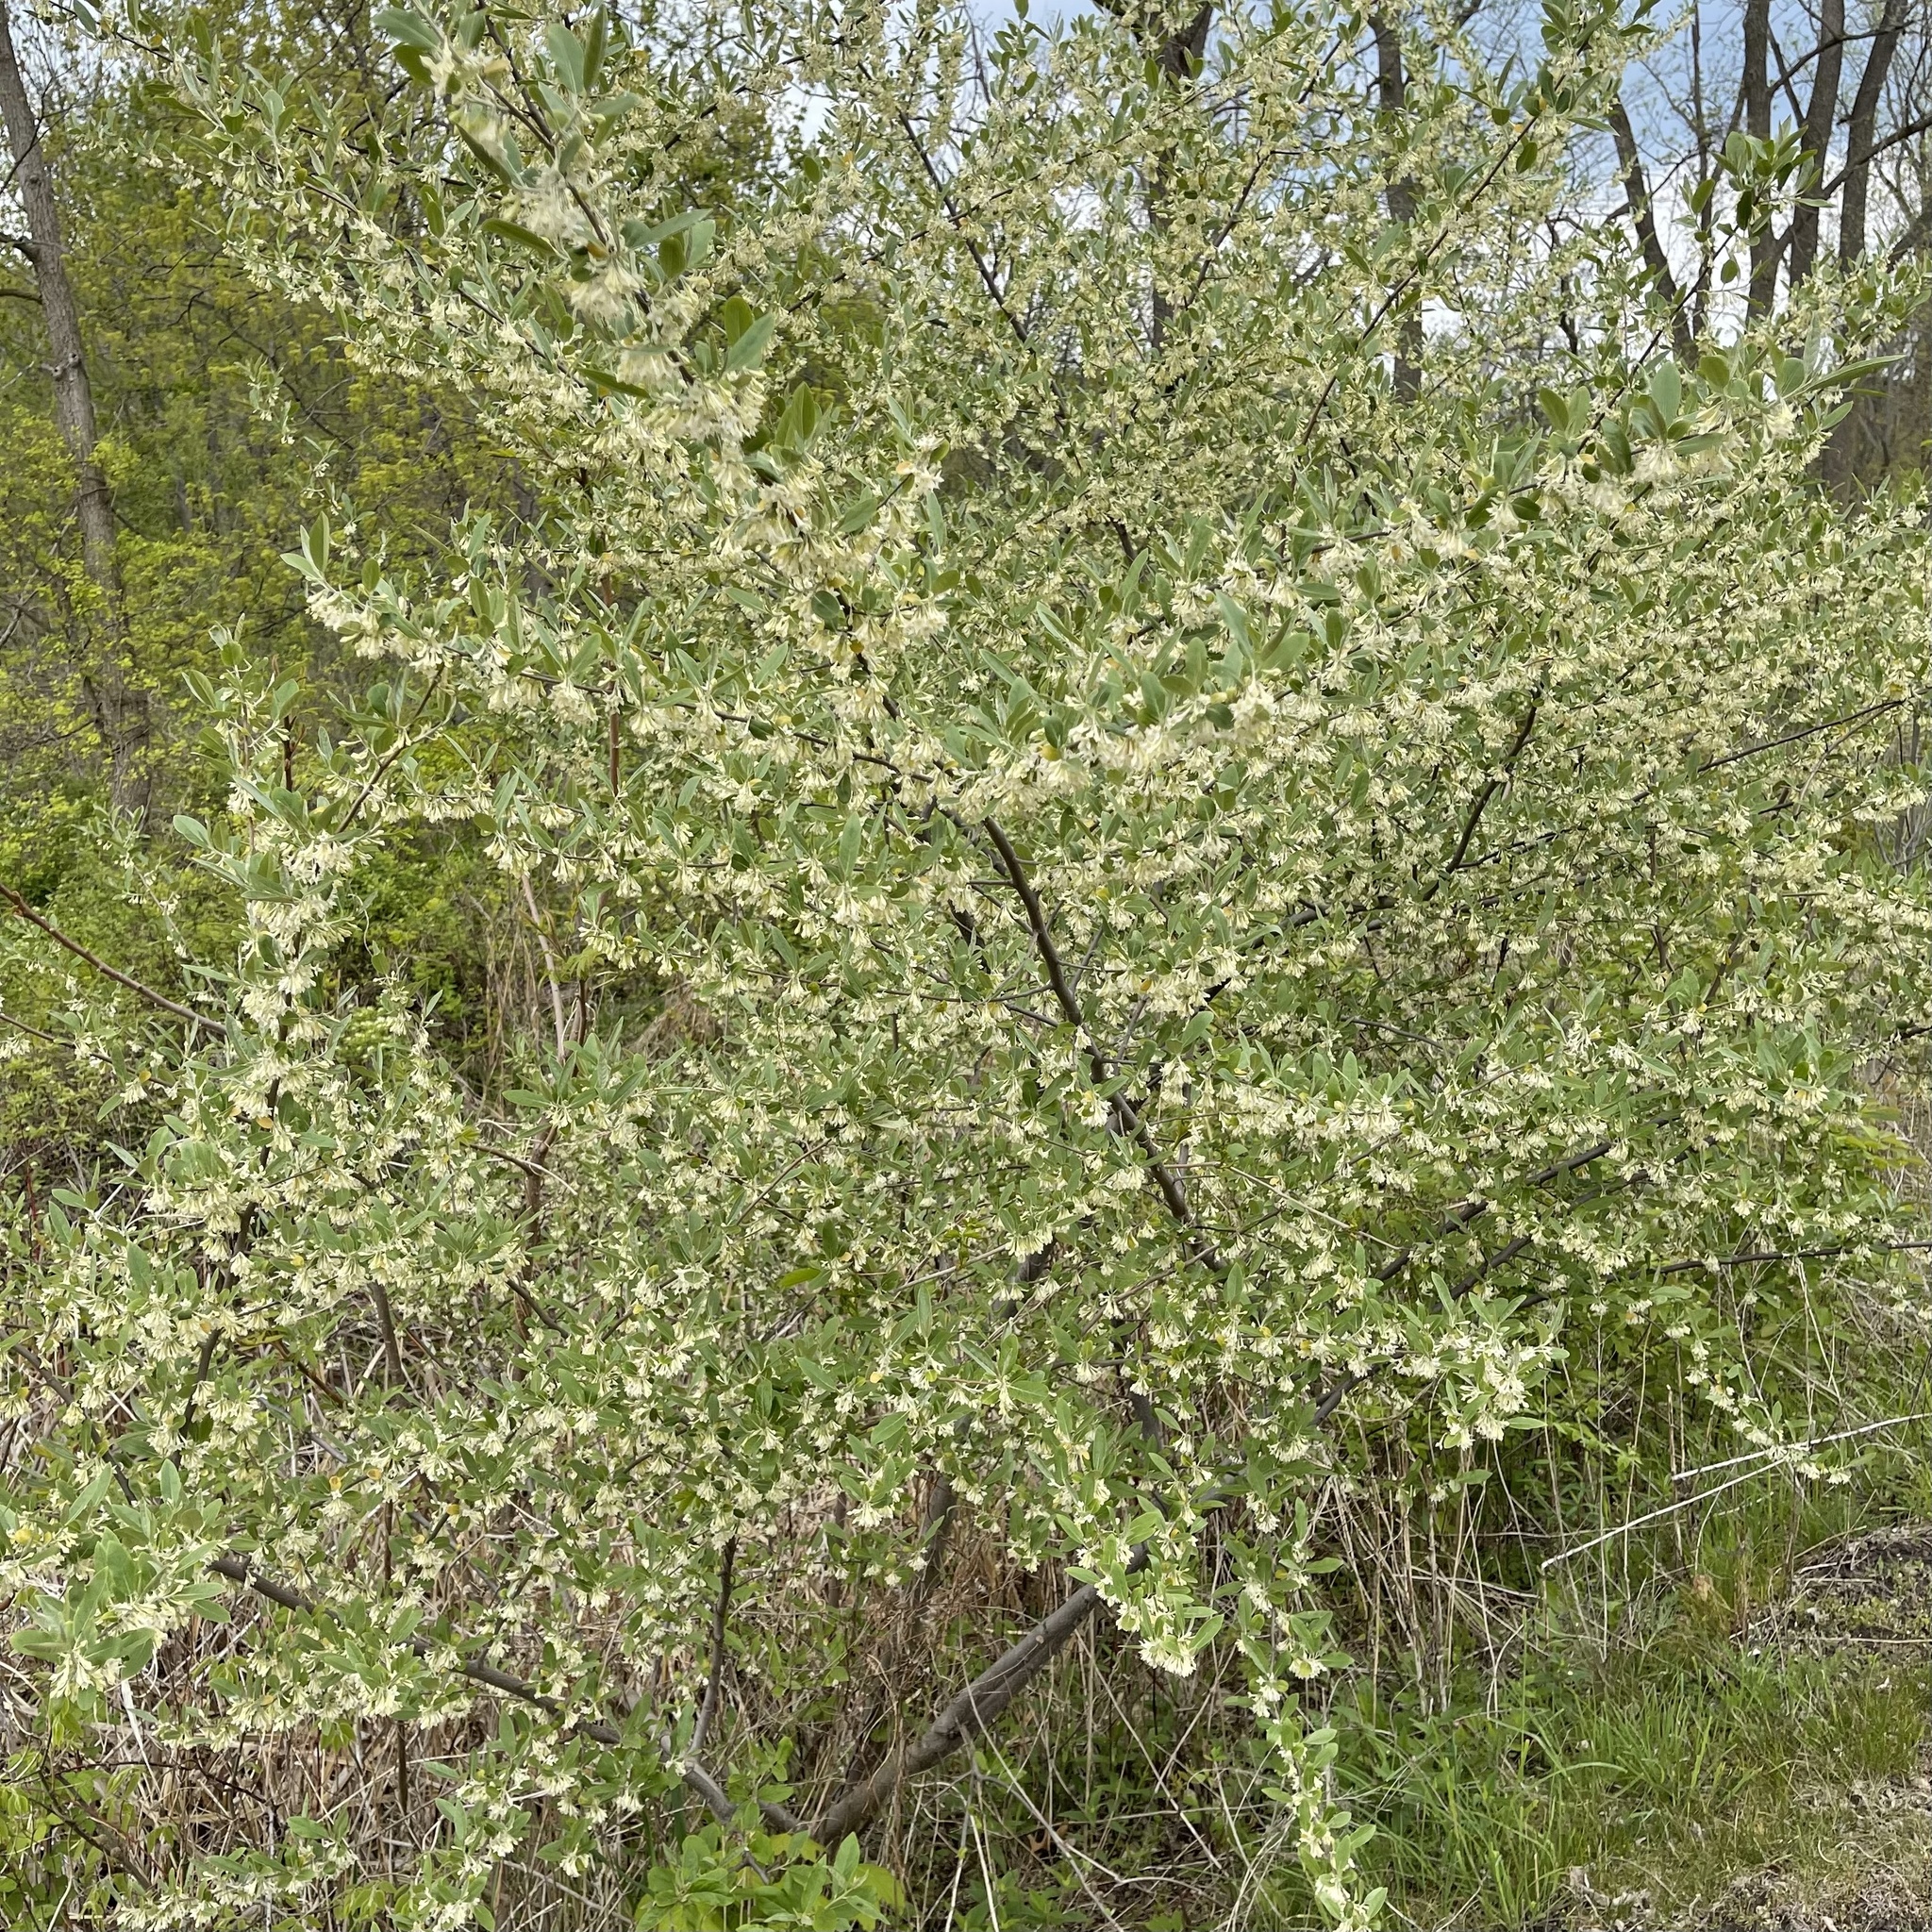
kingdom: Plantae
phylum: Tracheophyta
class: Magnoliopsida
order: Rosales
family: Elaeagnaceae
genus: Elaeagnus
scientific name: Elaeagnus umbellata
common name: Autumn olive
